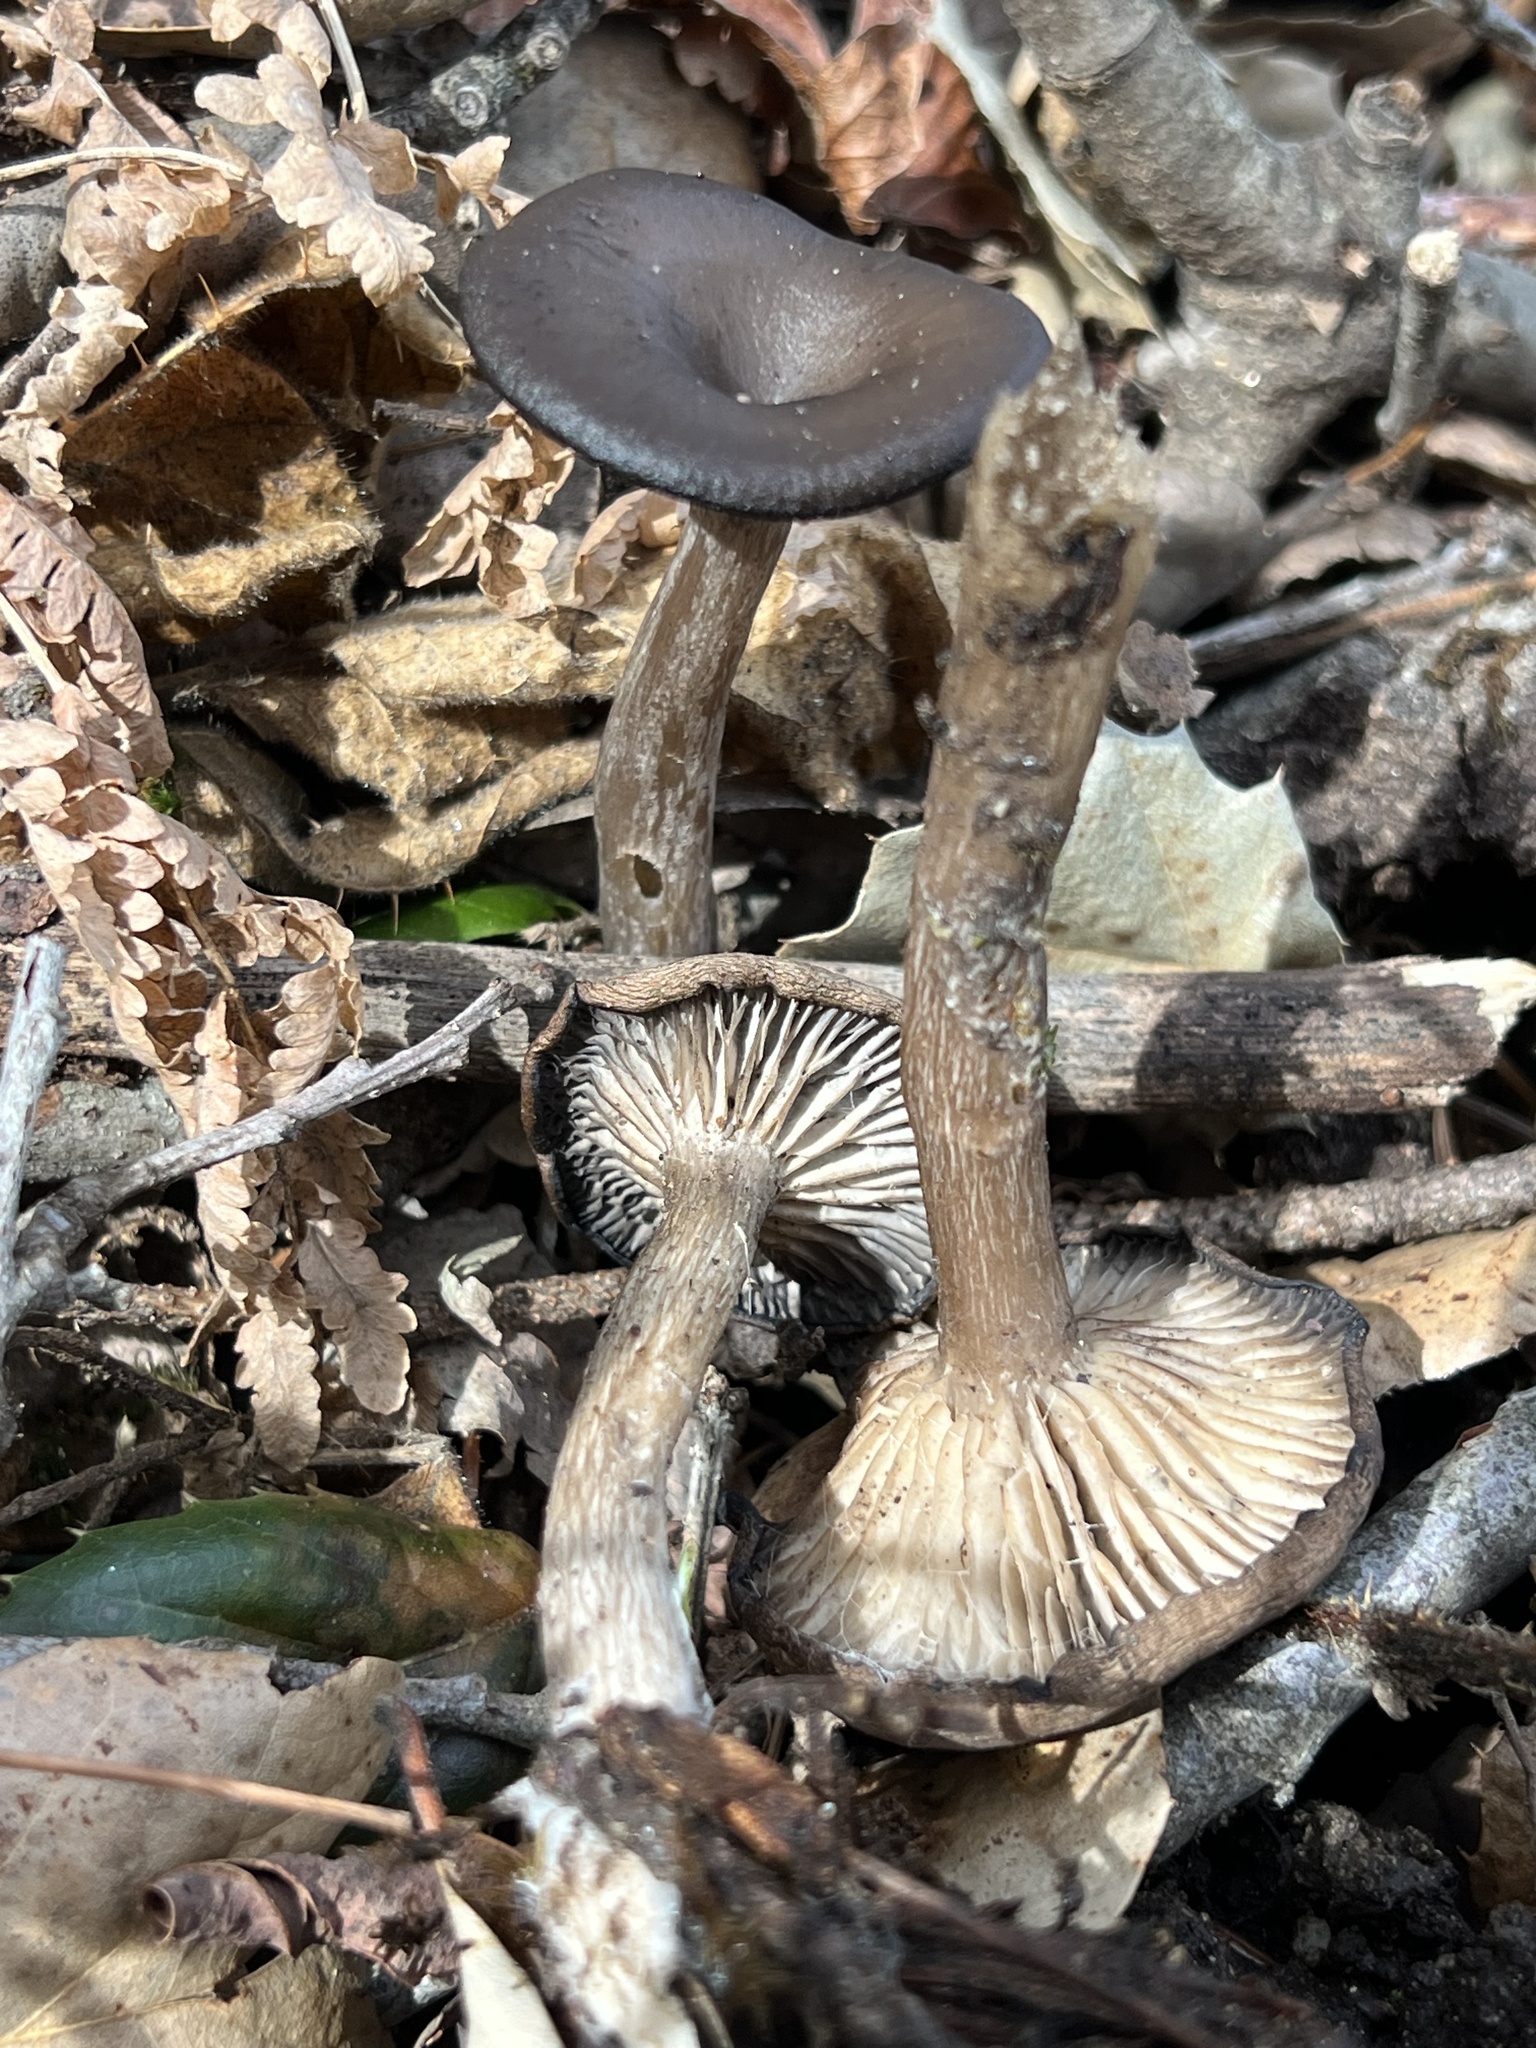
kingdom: Fungi
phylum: Basidiomycota
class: Agaricomycetes
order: Agaricales
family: Pseudoclitocybaceae
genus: Pseudoclitocybe
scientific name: Pseudoclitocybe cyathiformis
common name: Goblet
